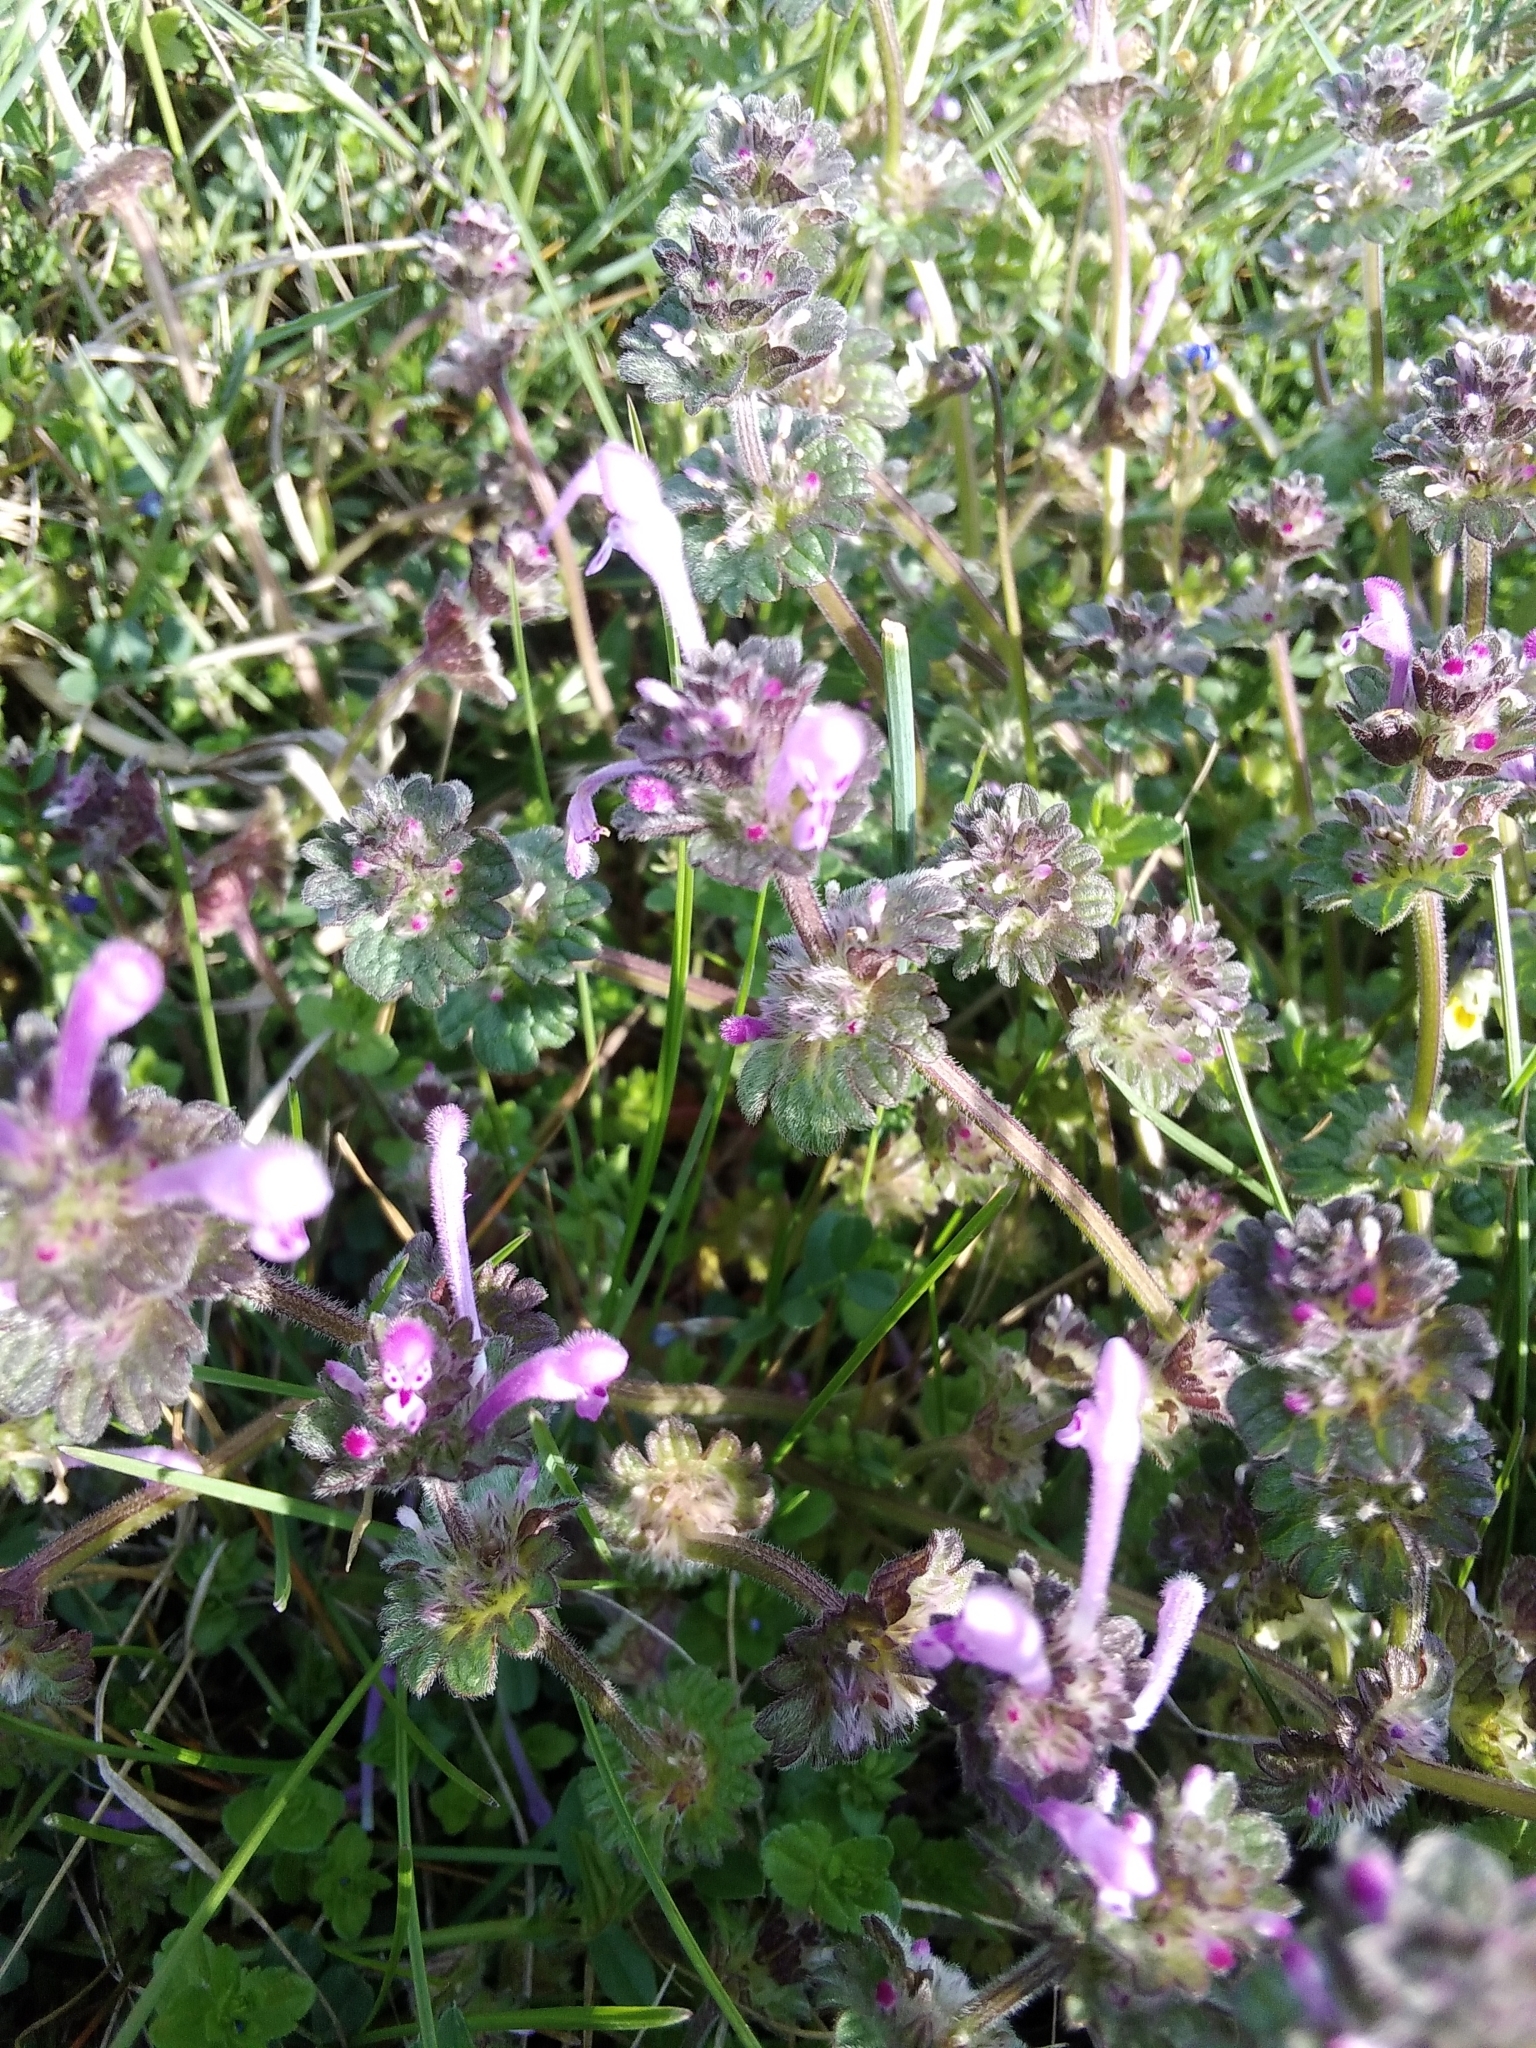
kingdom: Plantae
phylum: Tracheophyta
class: Magnoliopsida
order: Lamiales
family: Lamiaceae
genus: Lamium
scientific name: Lamium amplexicaule
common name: Henbit dead-nettle
